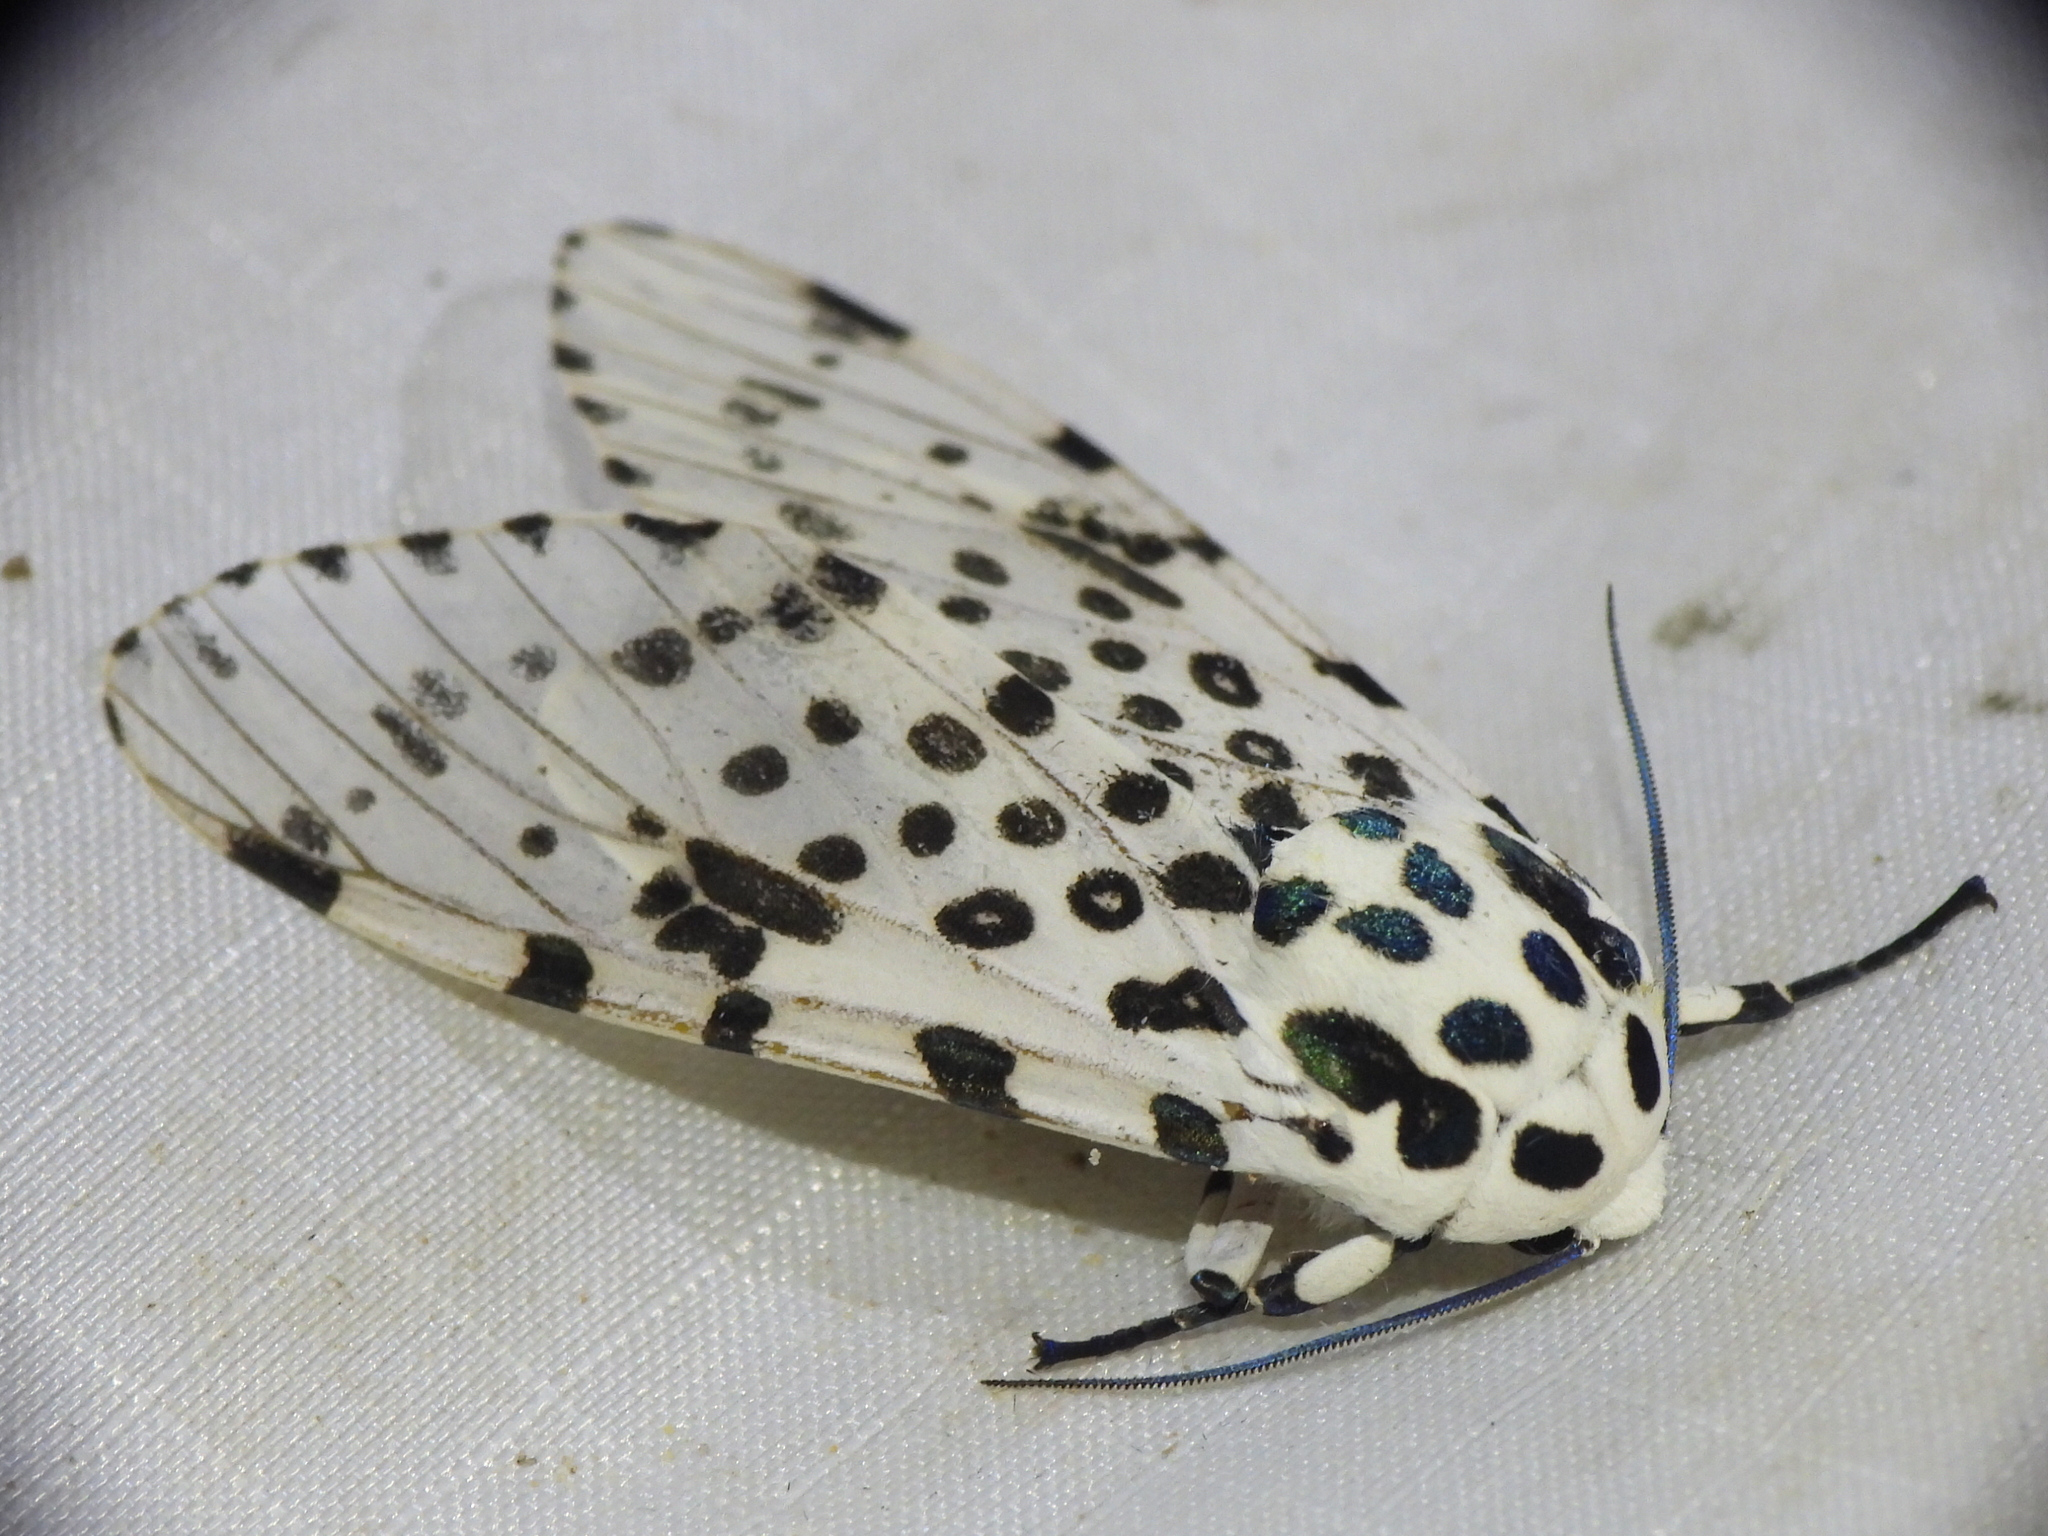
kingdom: Animalia
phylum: Arthropoda
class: Insecta
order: Lepidoptera
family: Erebidae
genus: Hypercompe
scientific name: Hypercompe scribonia
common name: Giant leopard moth
